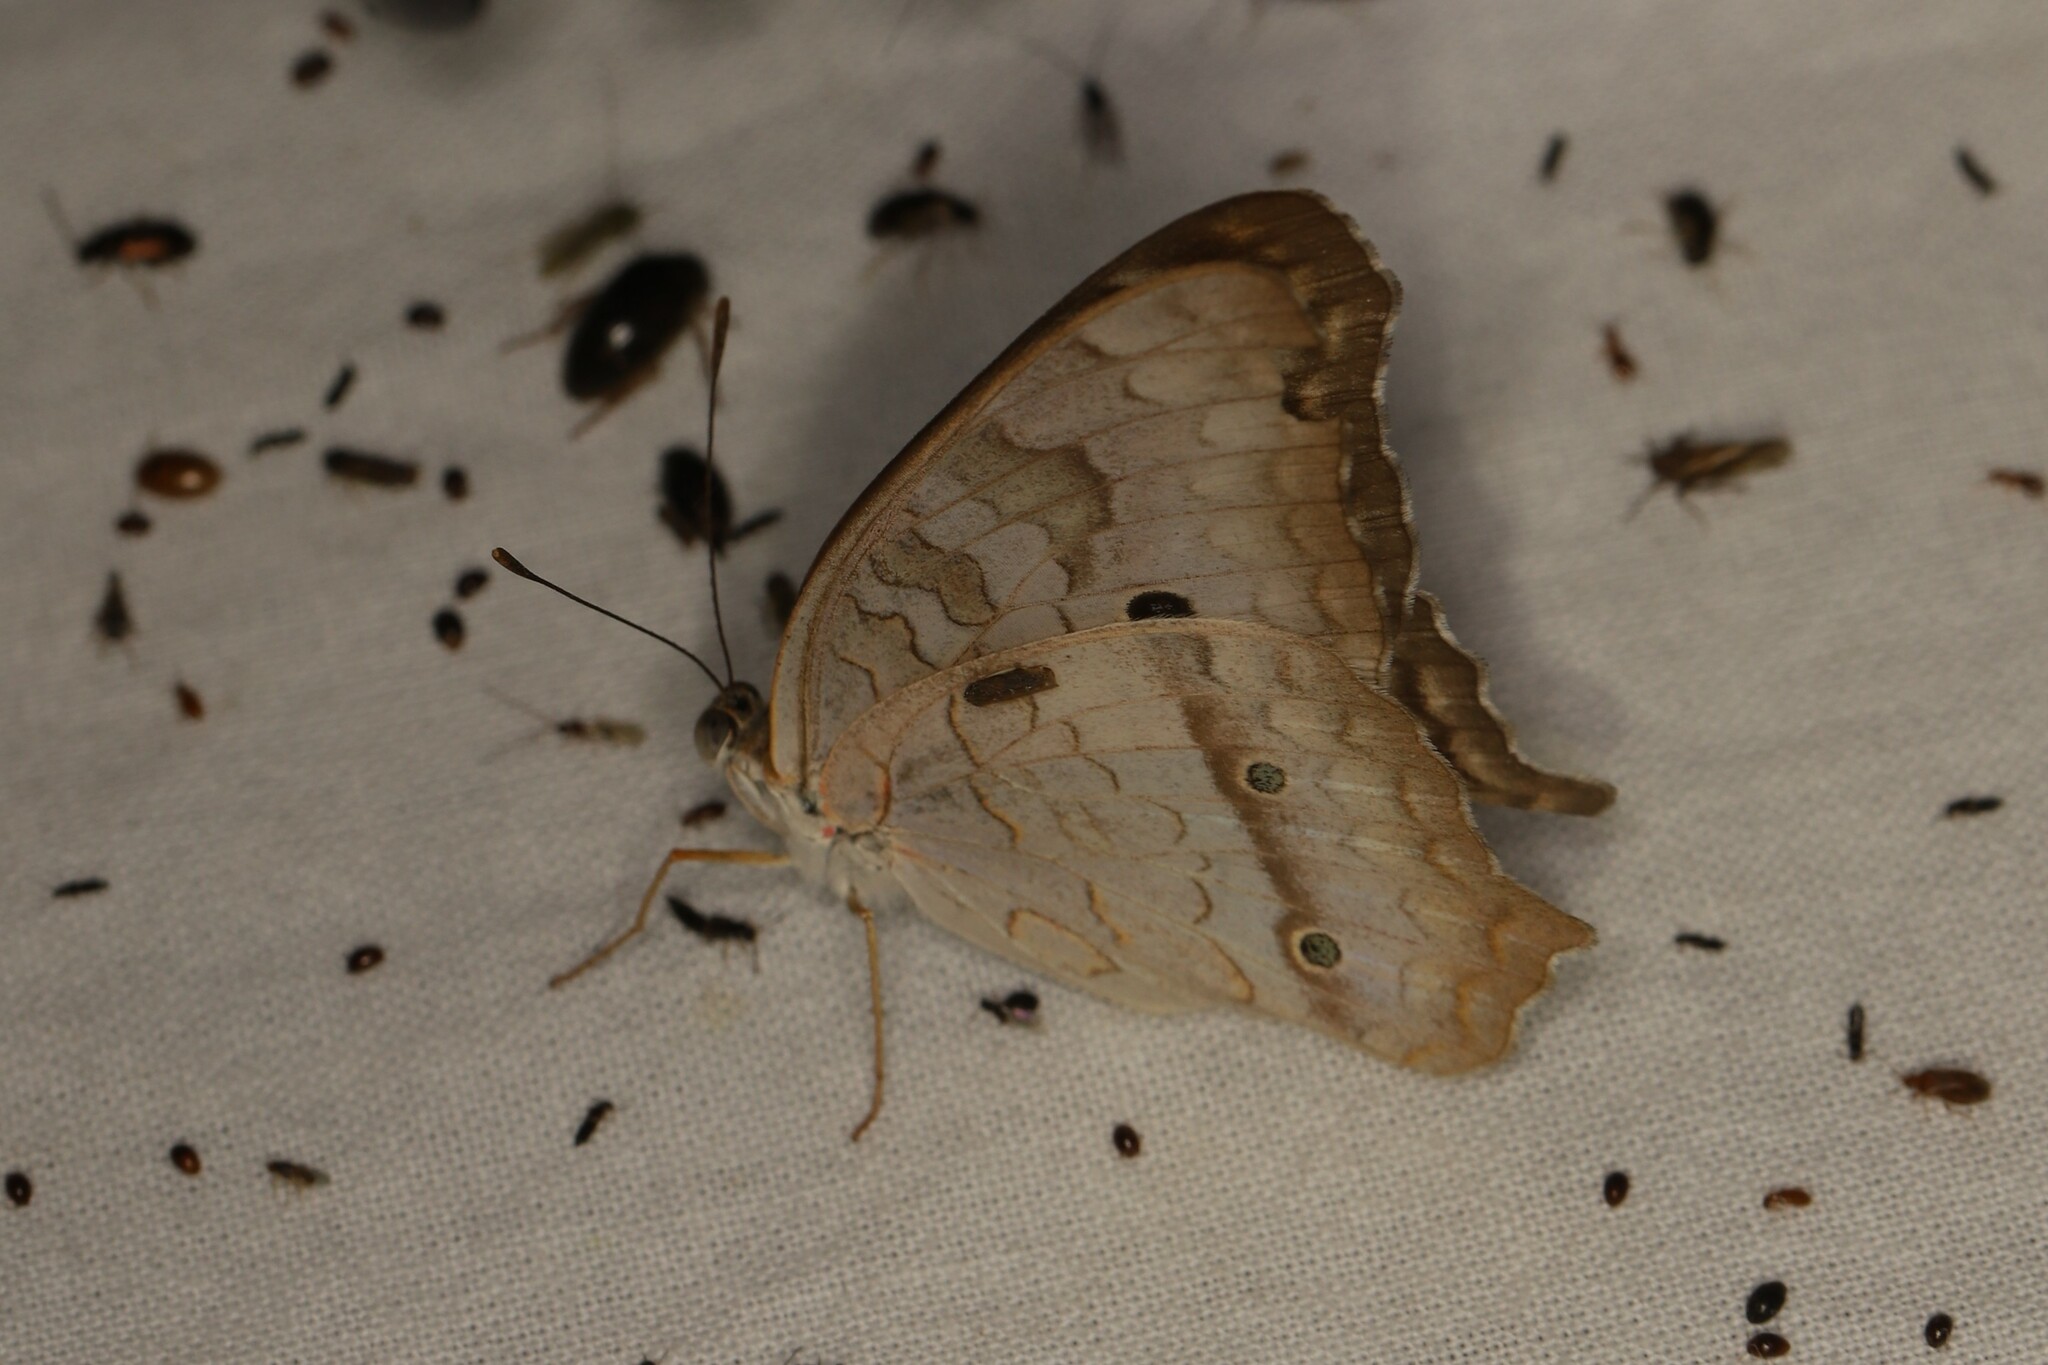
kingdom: Animalia
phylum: Arthropoda
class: Insecta
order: Lepidoptera
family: Nymphalidae
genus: Anartia
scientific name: Anartia jatrophae
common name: White peacock
